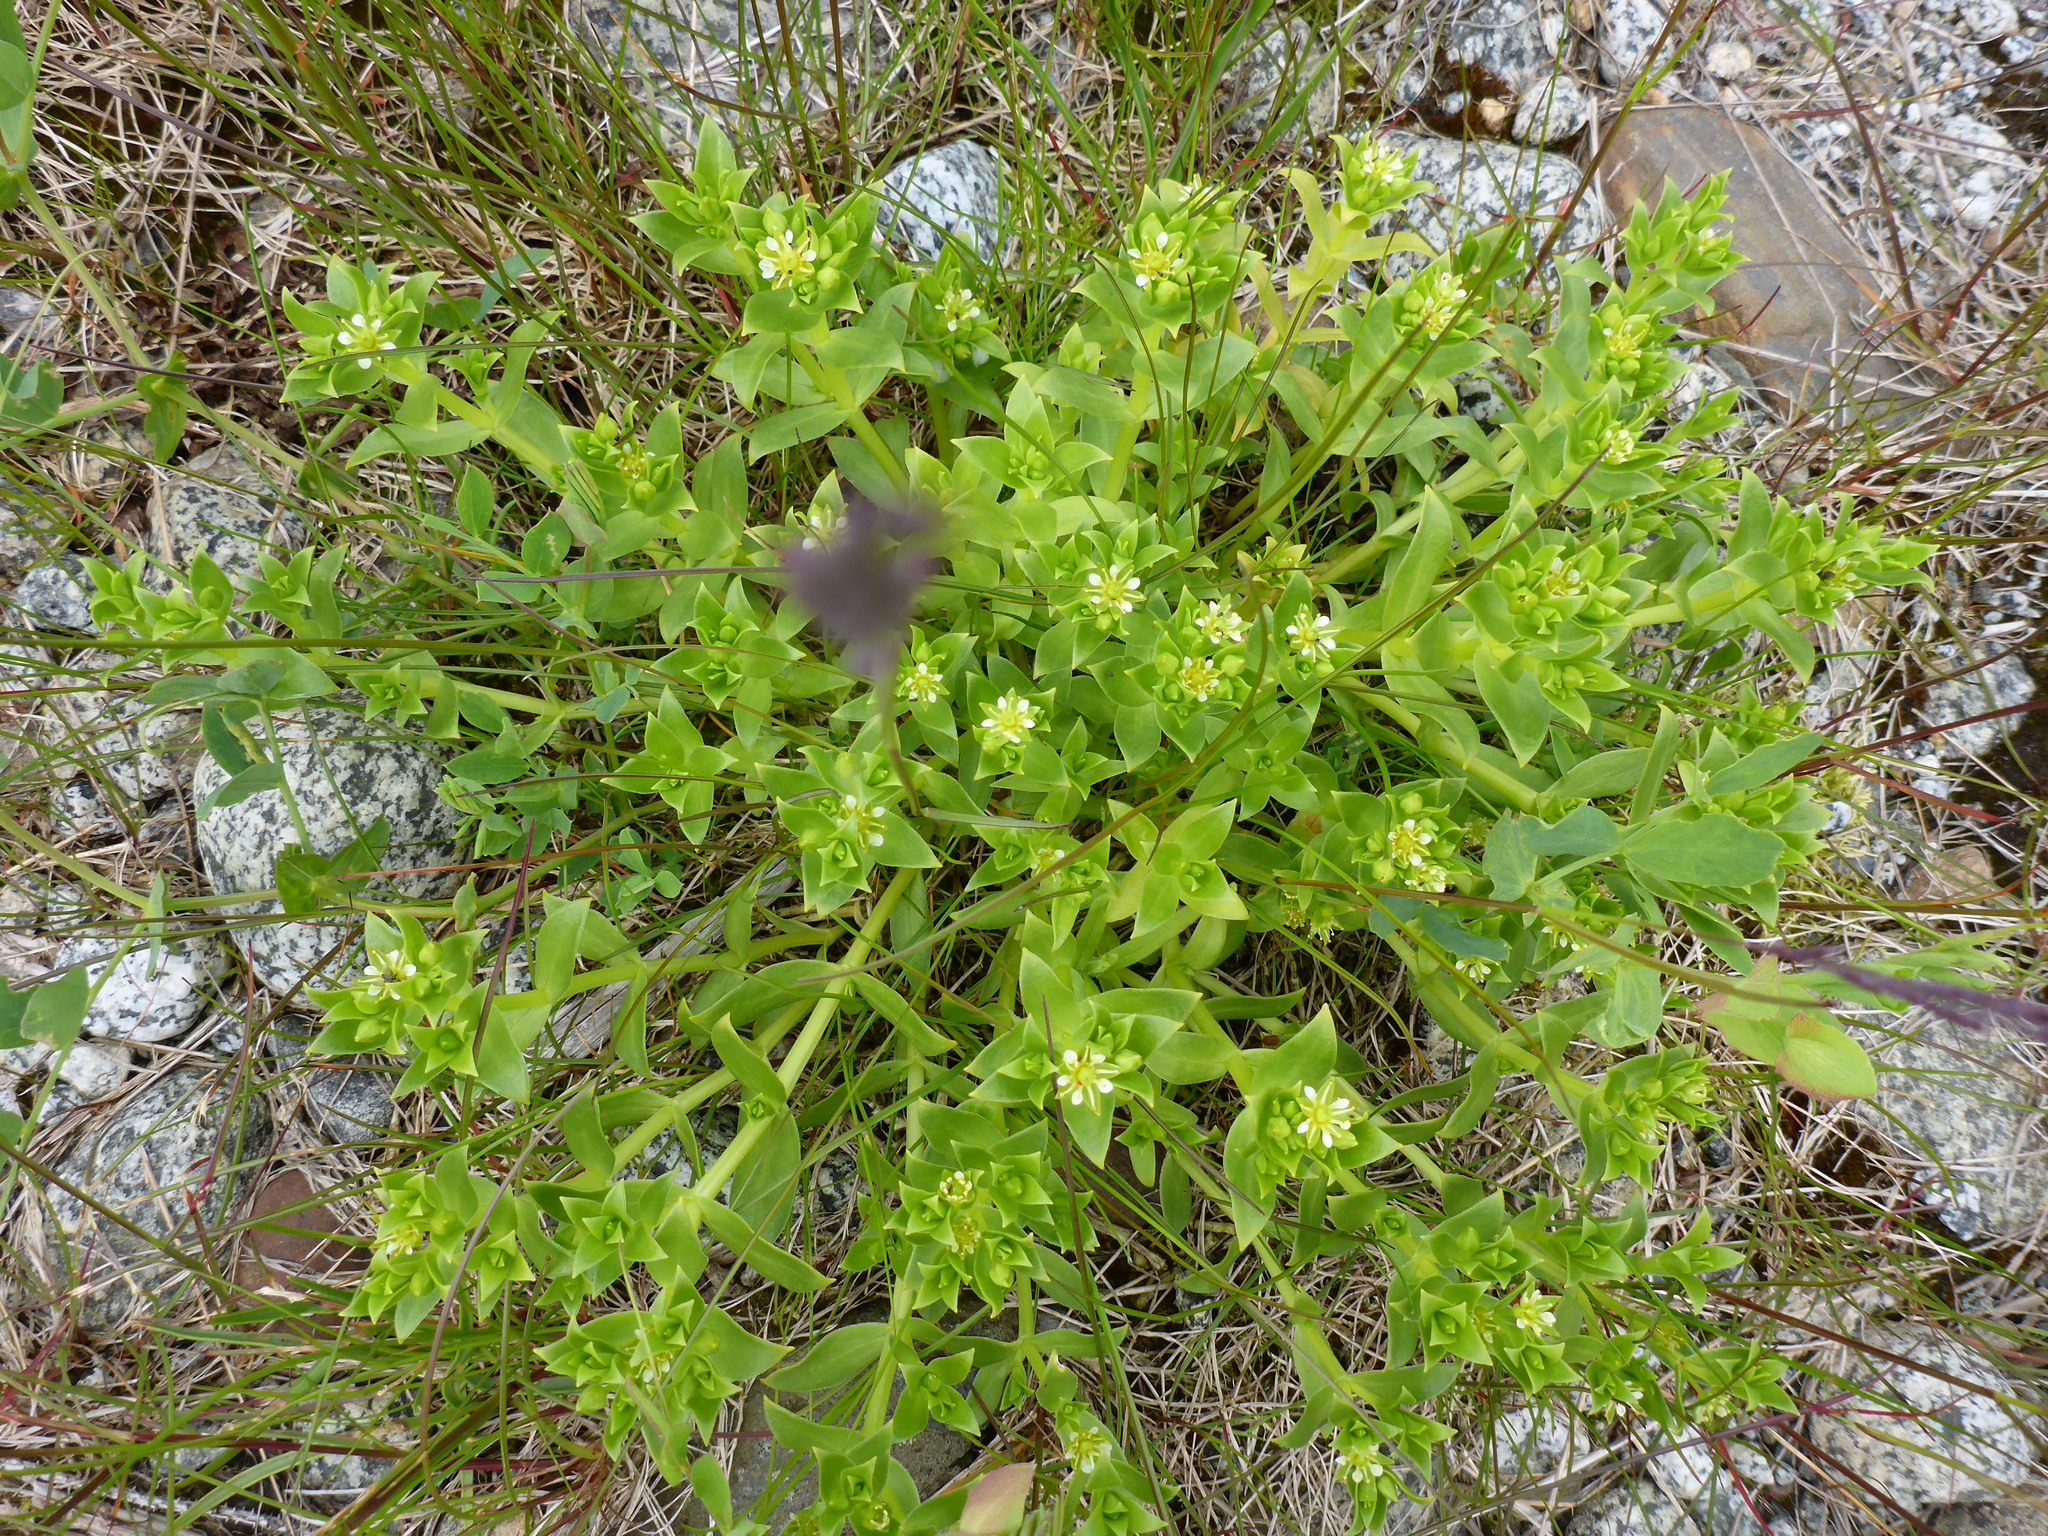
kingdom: Plantae
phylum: Tracheophyta
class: Magnoliopsida
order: Caryophyllales
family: Caryophyllaceae
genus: Honckenya
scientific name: Honckenya peploides
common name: Sea sandwort
